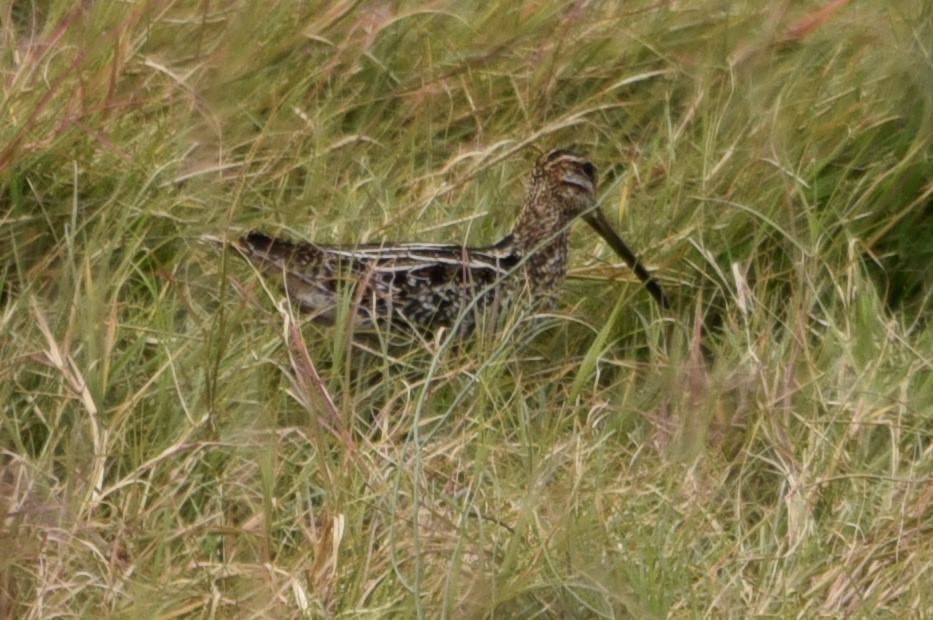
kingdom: Animalia
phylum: Chordata
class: Aves
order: Charadriiformes
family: Scolopacidae
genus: Gallinago
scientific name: Gallinago delicata
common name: Wilson's snipe
